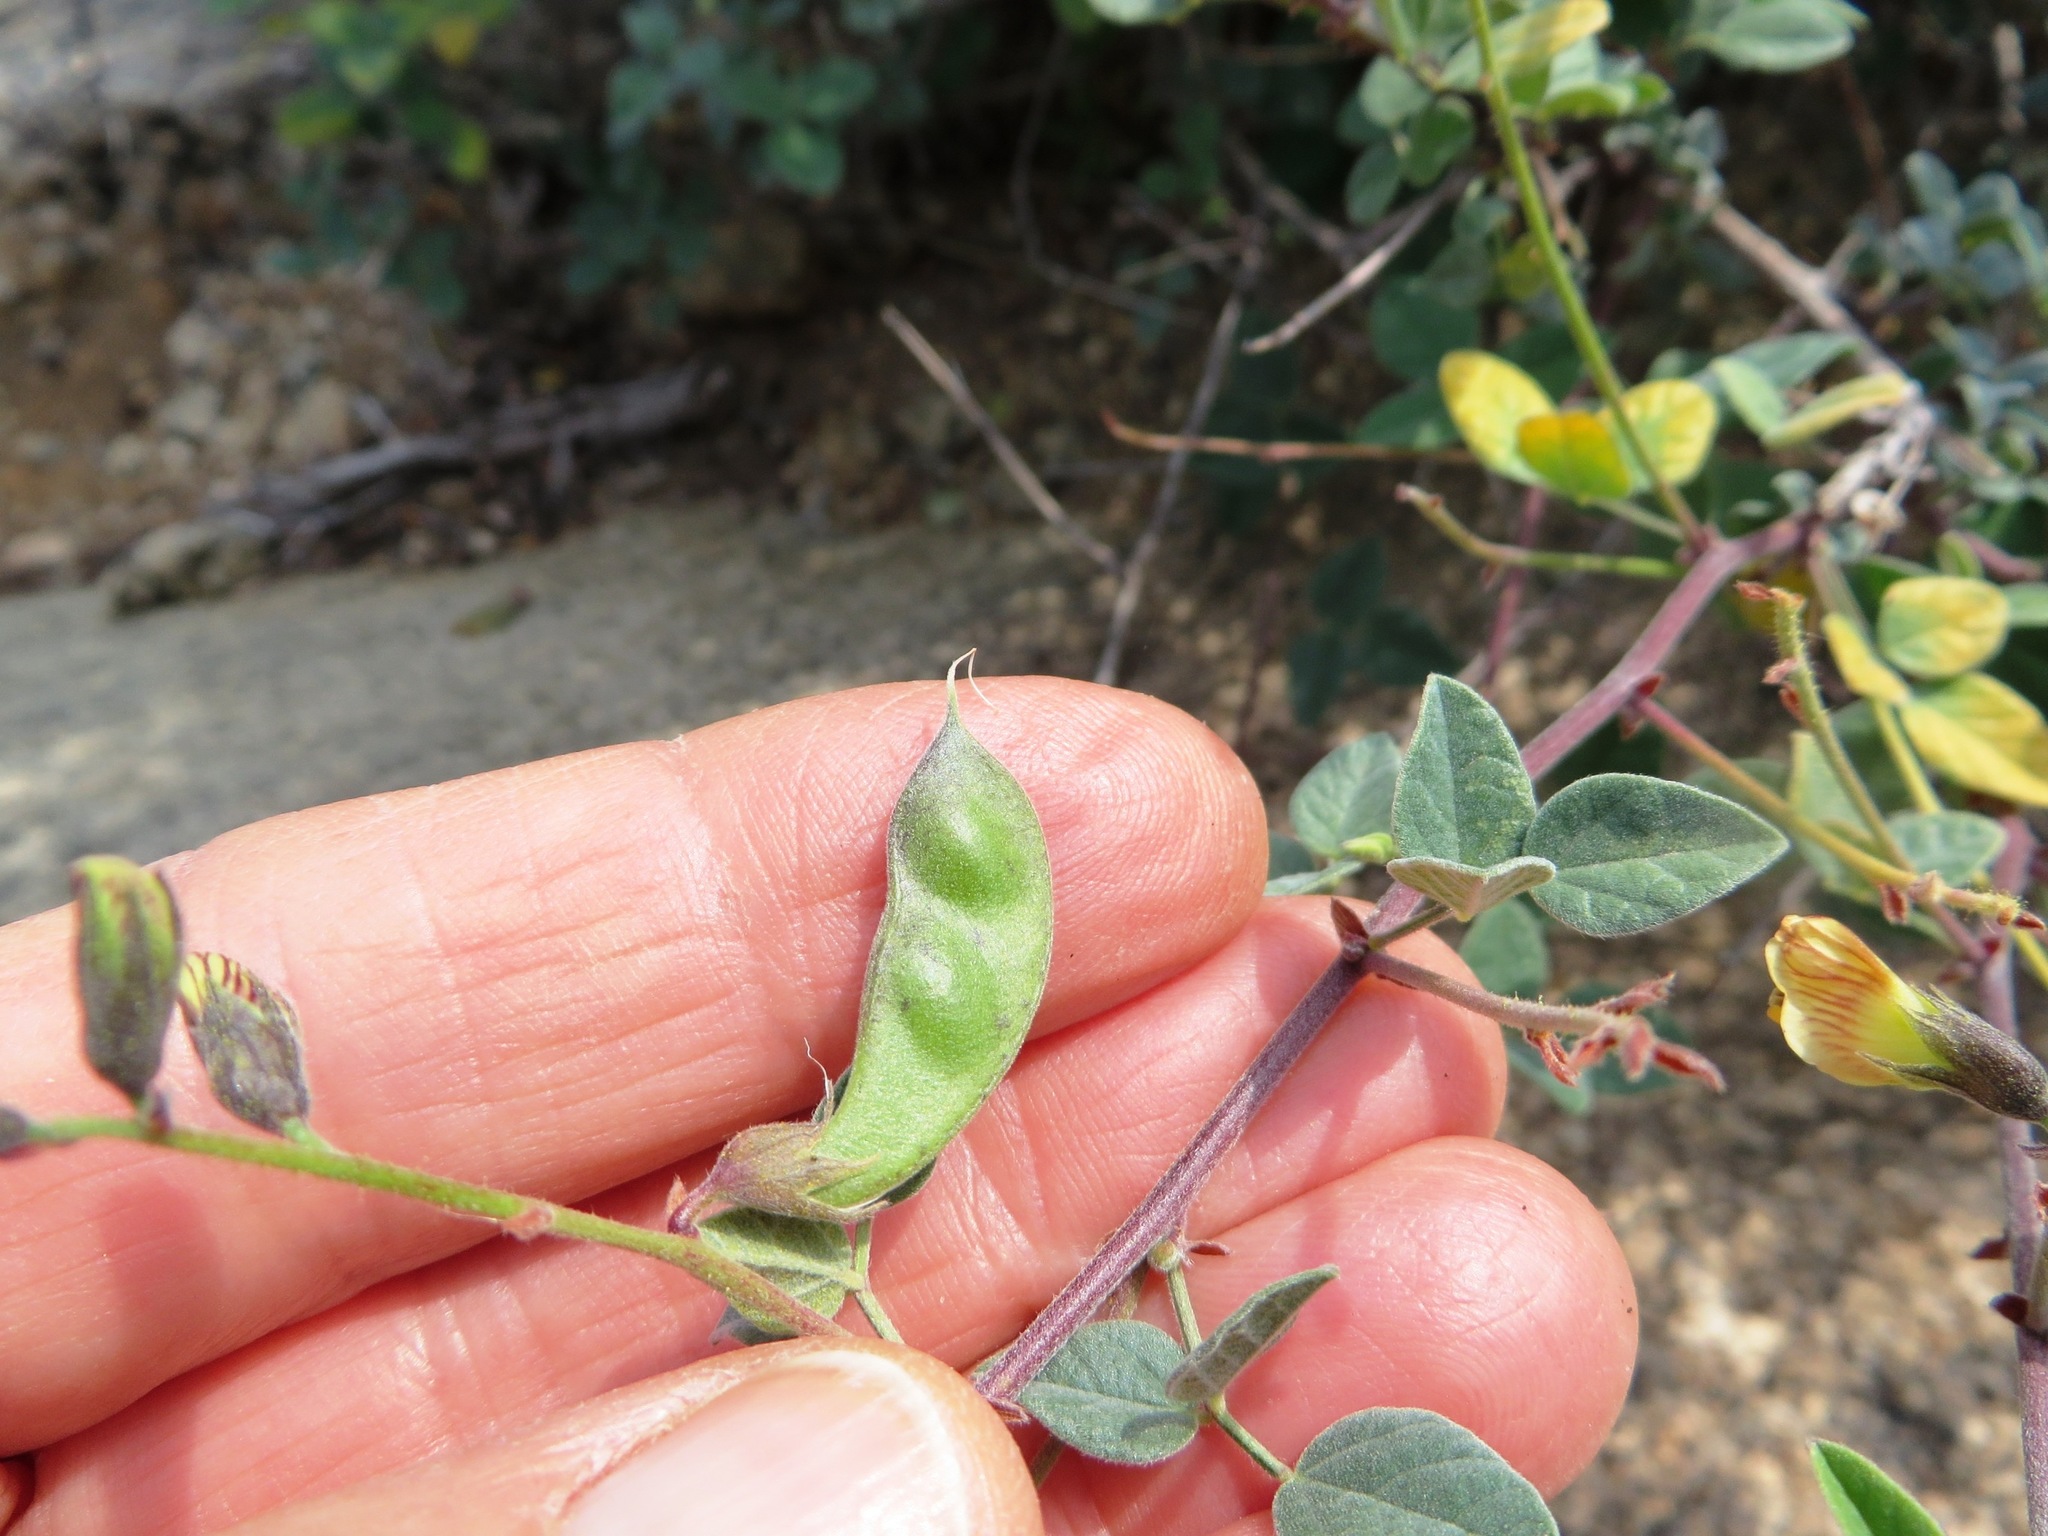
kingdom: Plantae
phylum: Tracheophyta
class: Magnoliopsida
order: Fabales
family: Fabaceae
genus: Rhynchosia
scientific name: Rhynchosia schlechteri
